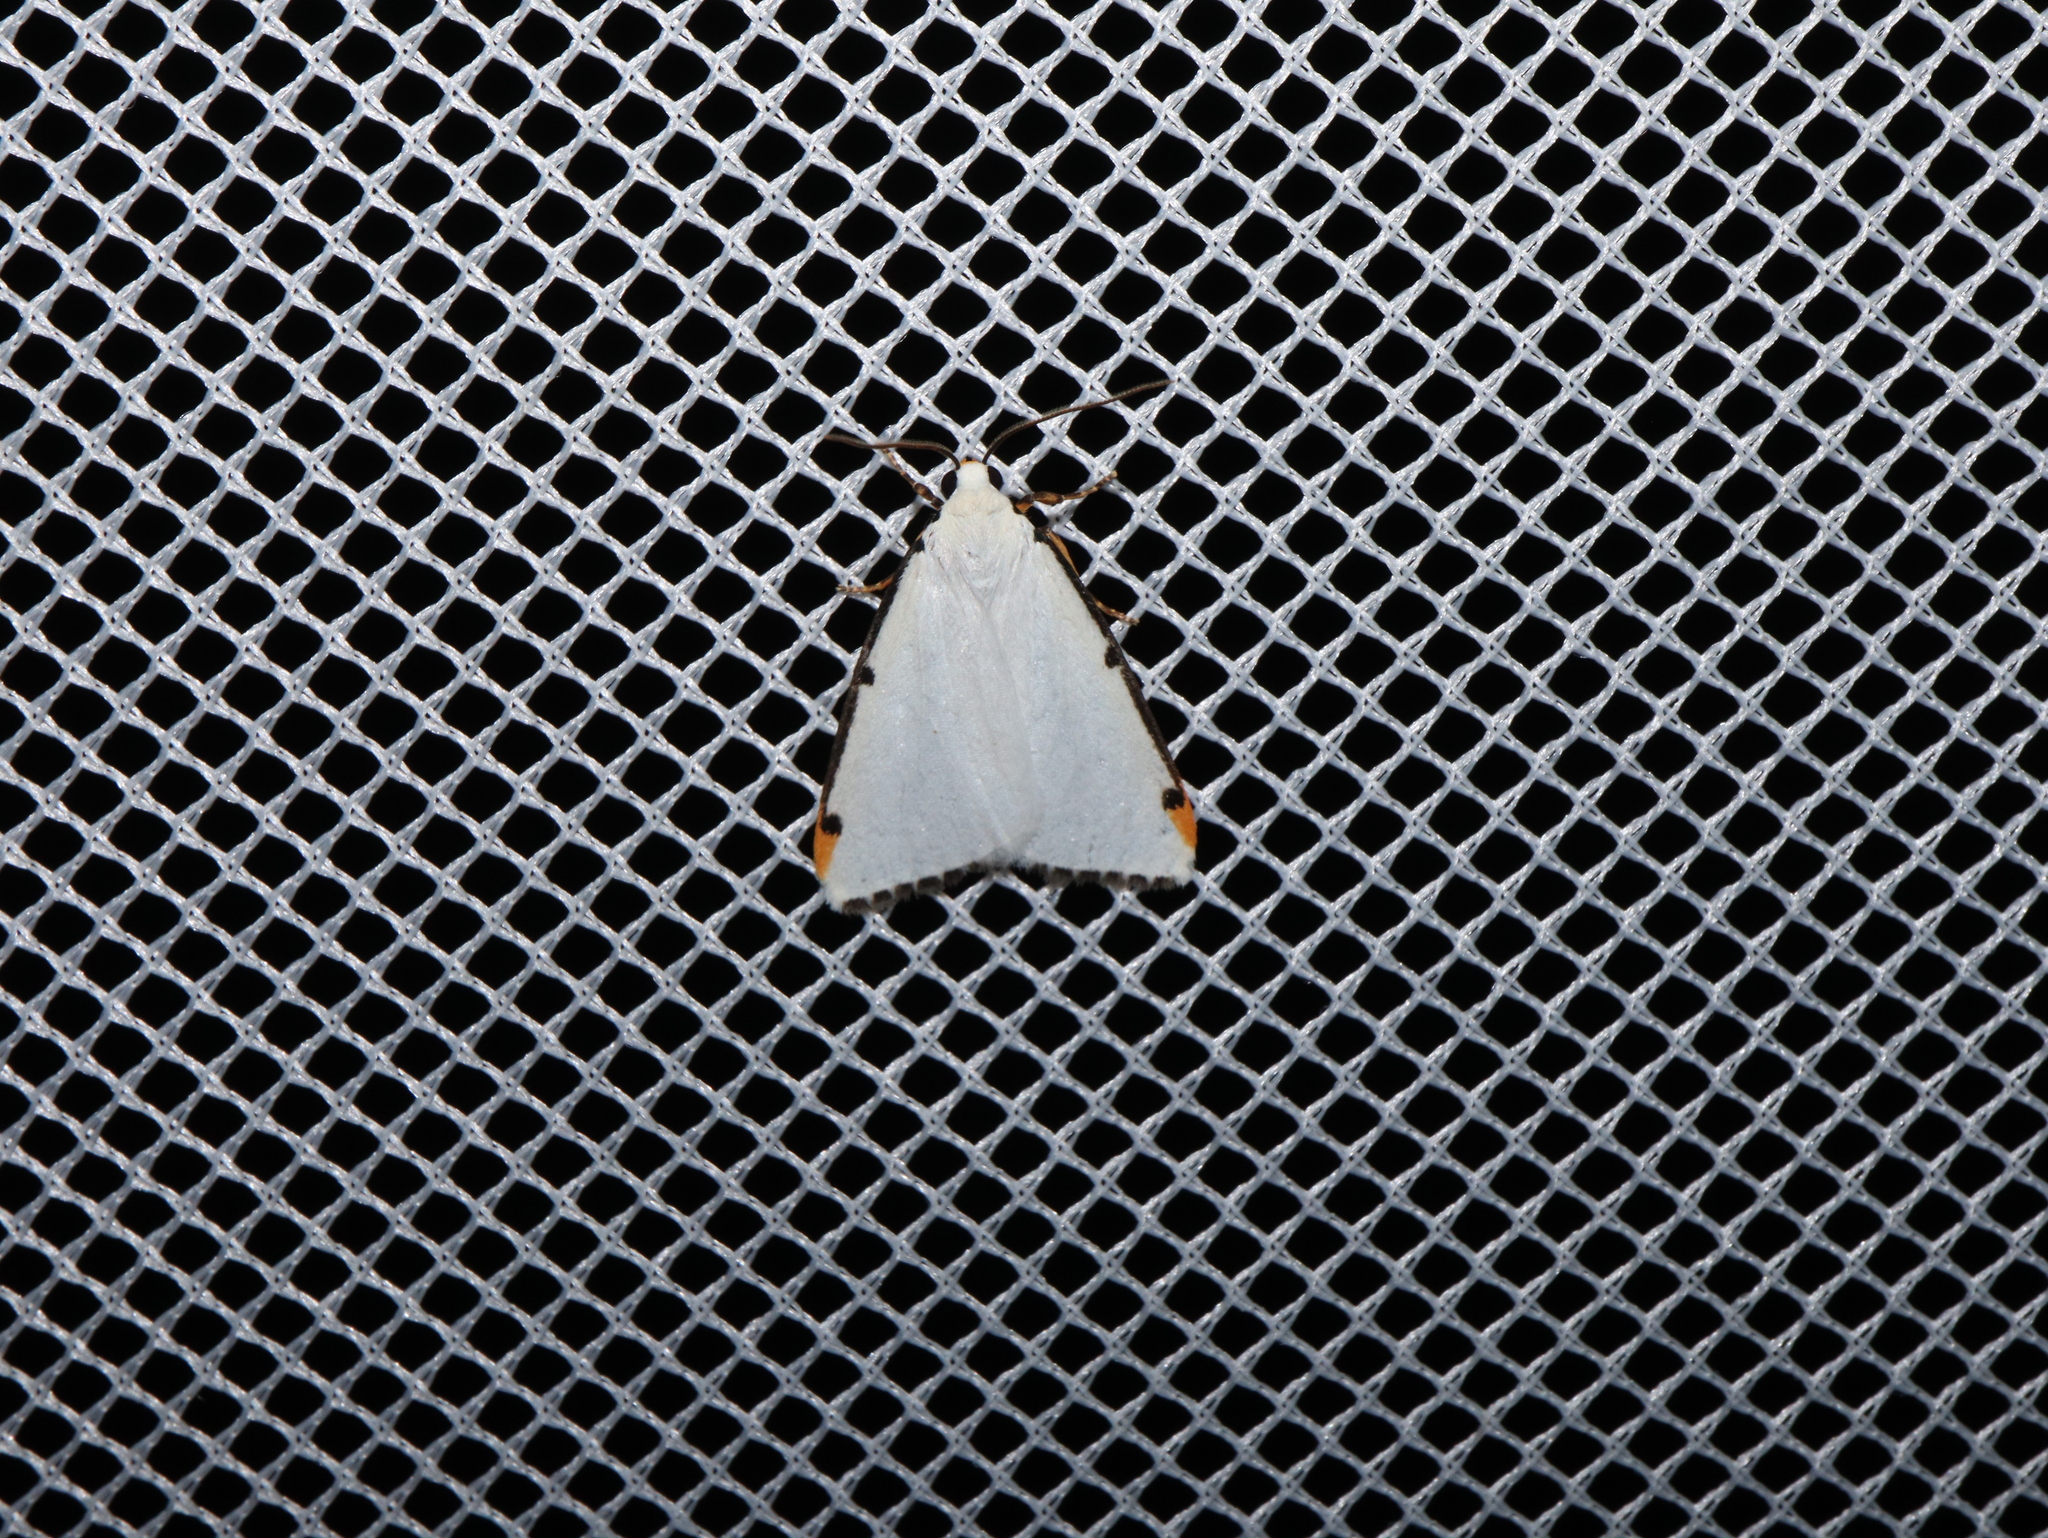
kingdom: Animalia
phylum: Arthropoda
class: Insecta
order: Lepidoptera
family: Erebidae
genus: Termessa
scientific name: Termessa nivosa
